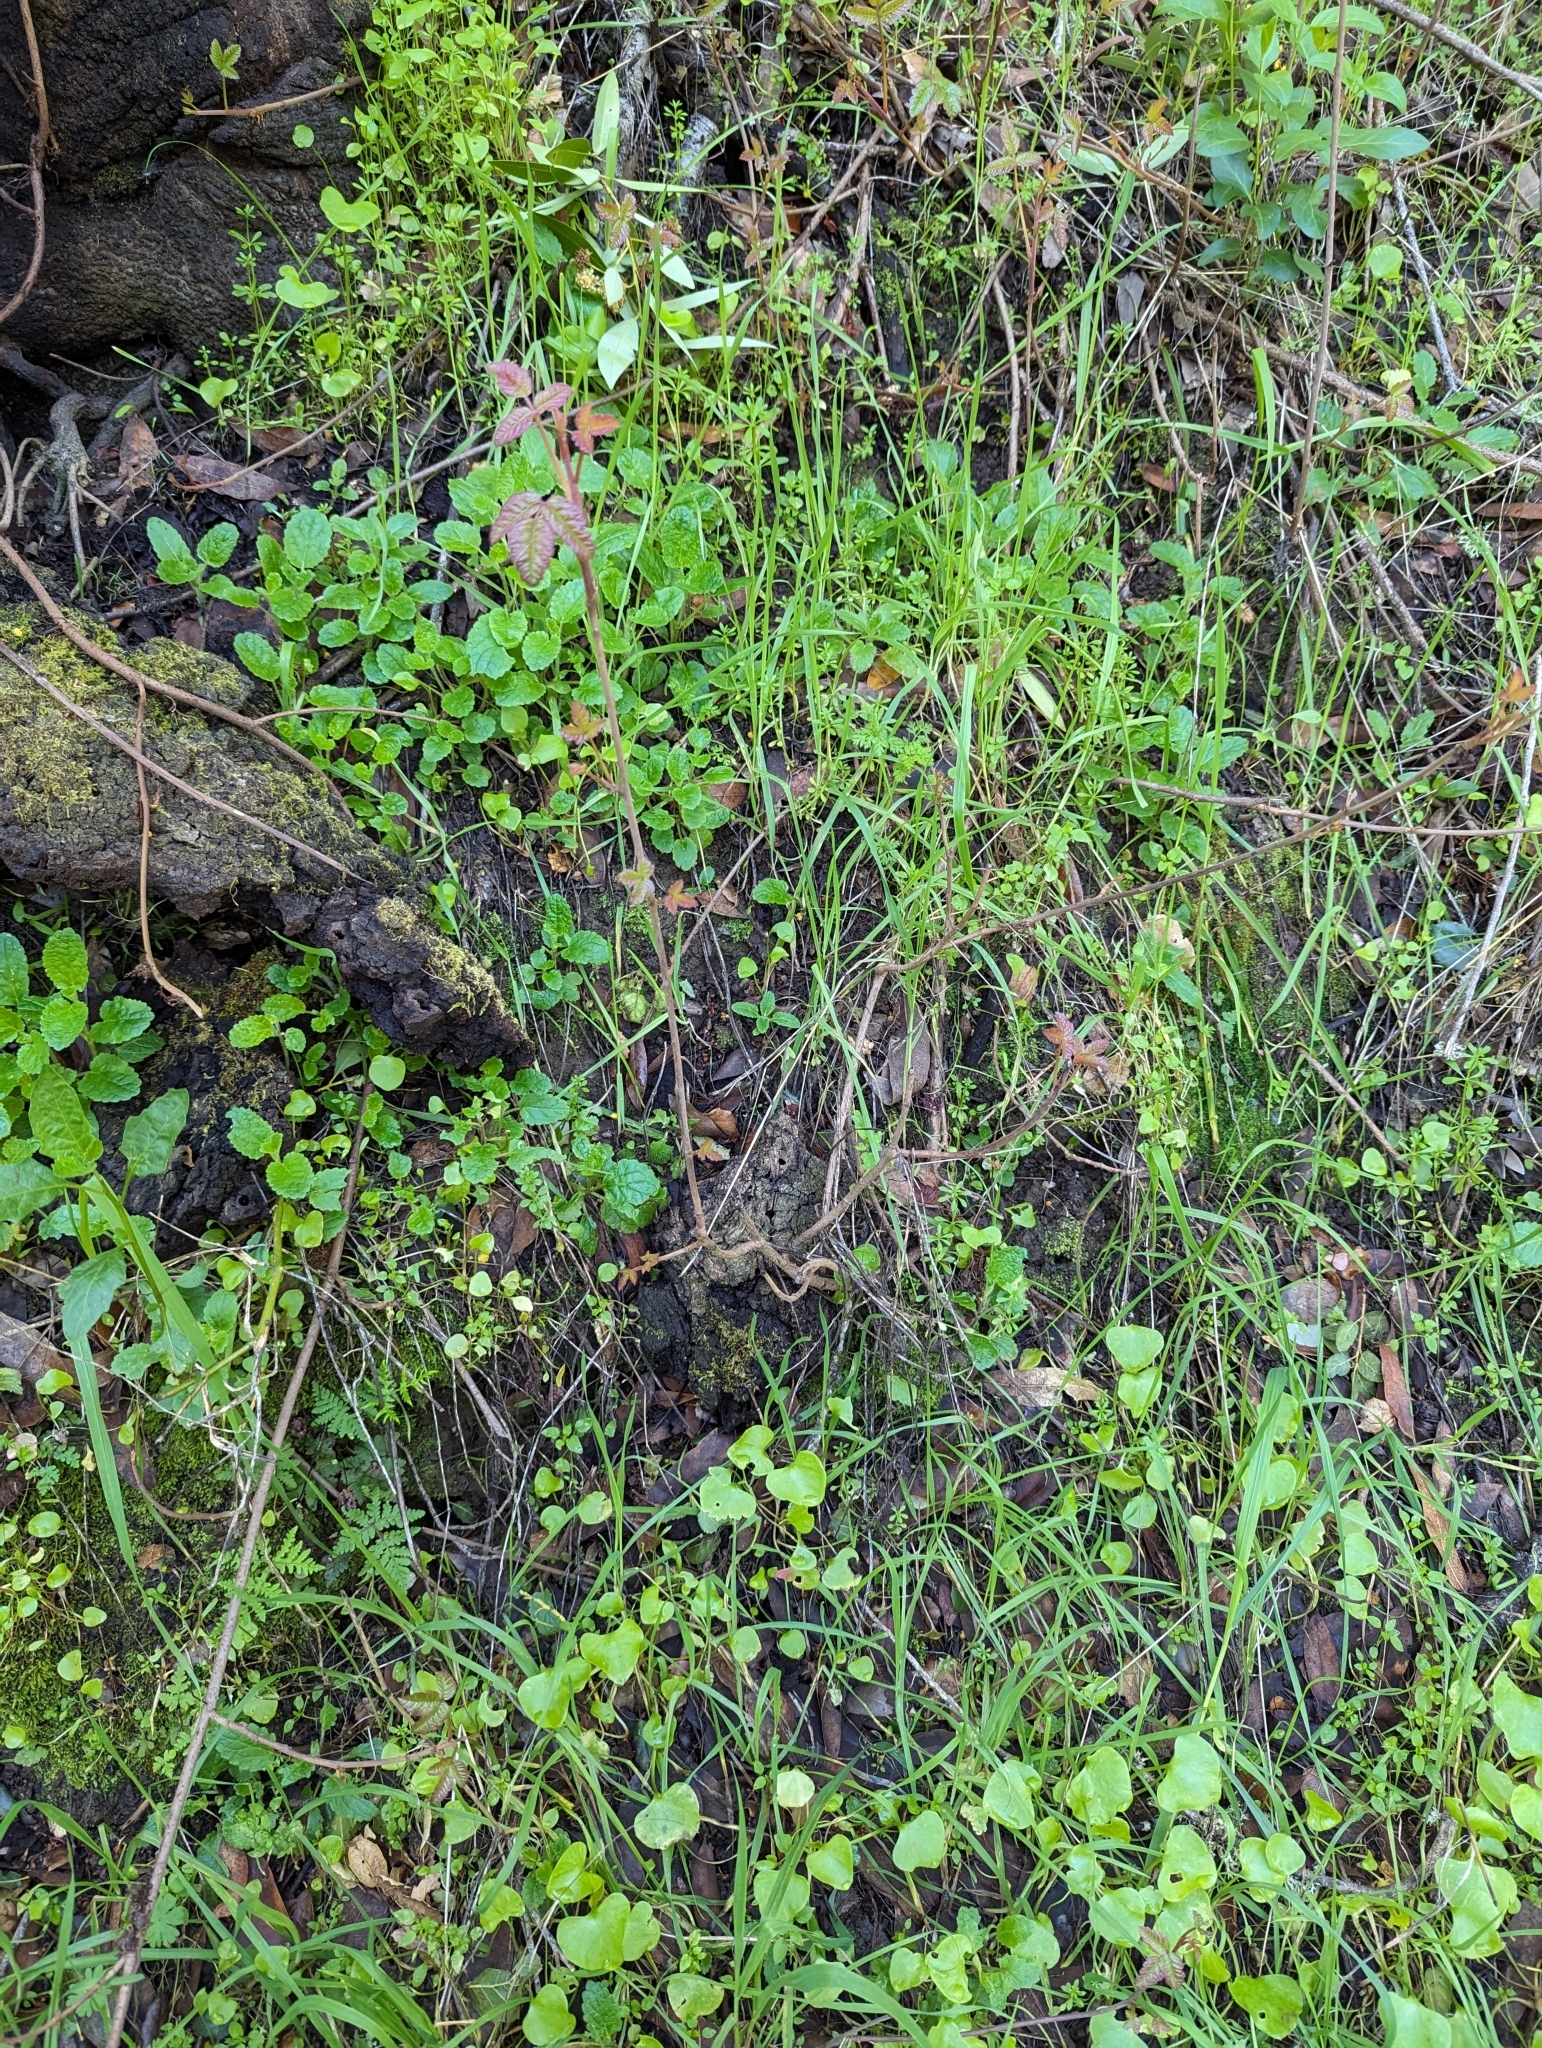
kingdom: Plantae
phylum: Tracheophyta
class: Magnoliopsida
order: Sapindales
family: Anacardiaceae
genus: Toxicodendron
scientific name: Toxicodendron diversilobum
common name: Pacific poison-oak
